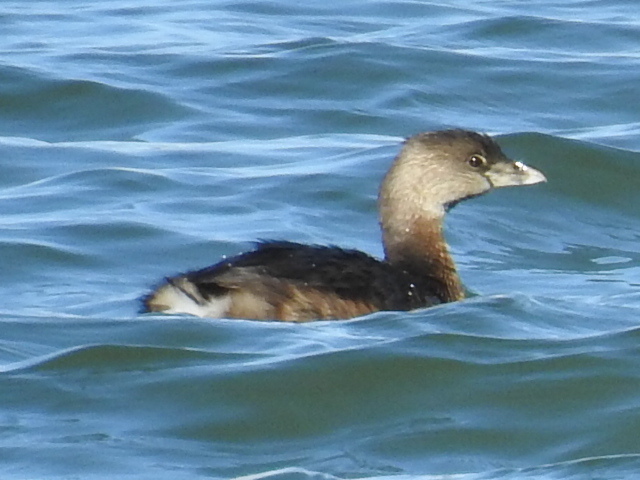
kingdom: Animalia
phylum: Chordata
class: Aves
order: Podicipediformes
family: Podicipedidae
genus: Podilymbus
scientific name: Podilymbus podiceps
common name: Pied-billed grebe
